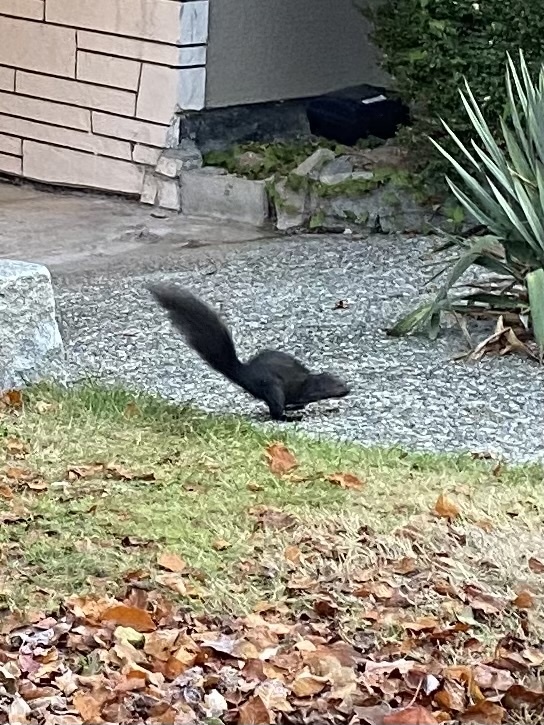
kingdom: Animalia
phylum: Chordata
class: Mammalia
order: Rodentia
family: Sciuridae
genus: Sciurus
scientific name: Sciurus carolinensis
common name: Eastern gray squirrel
